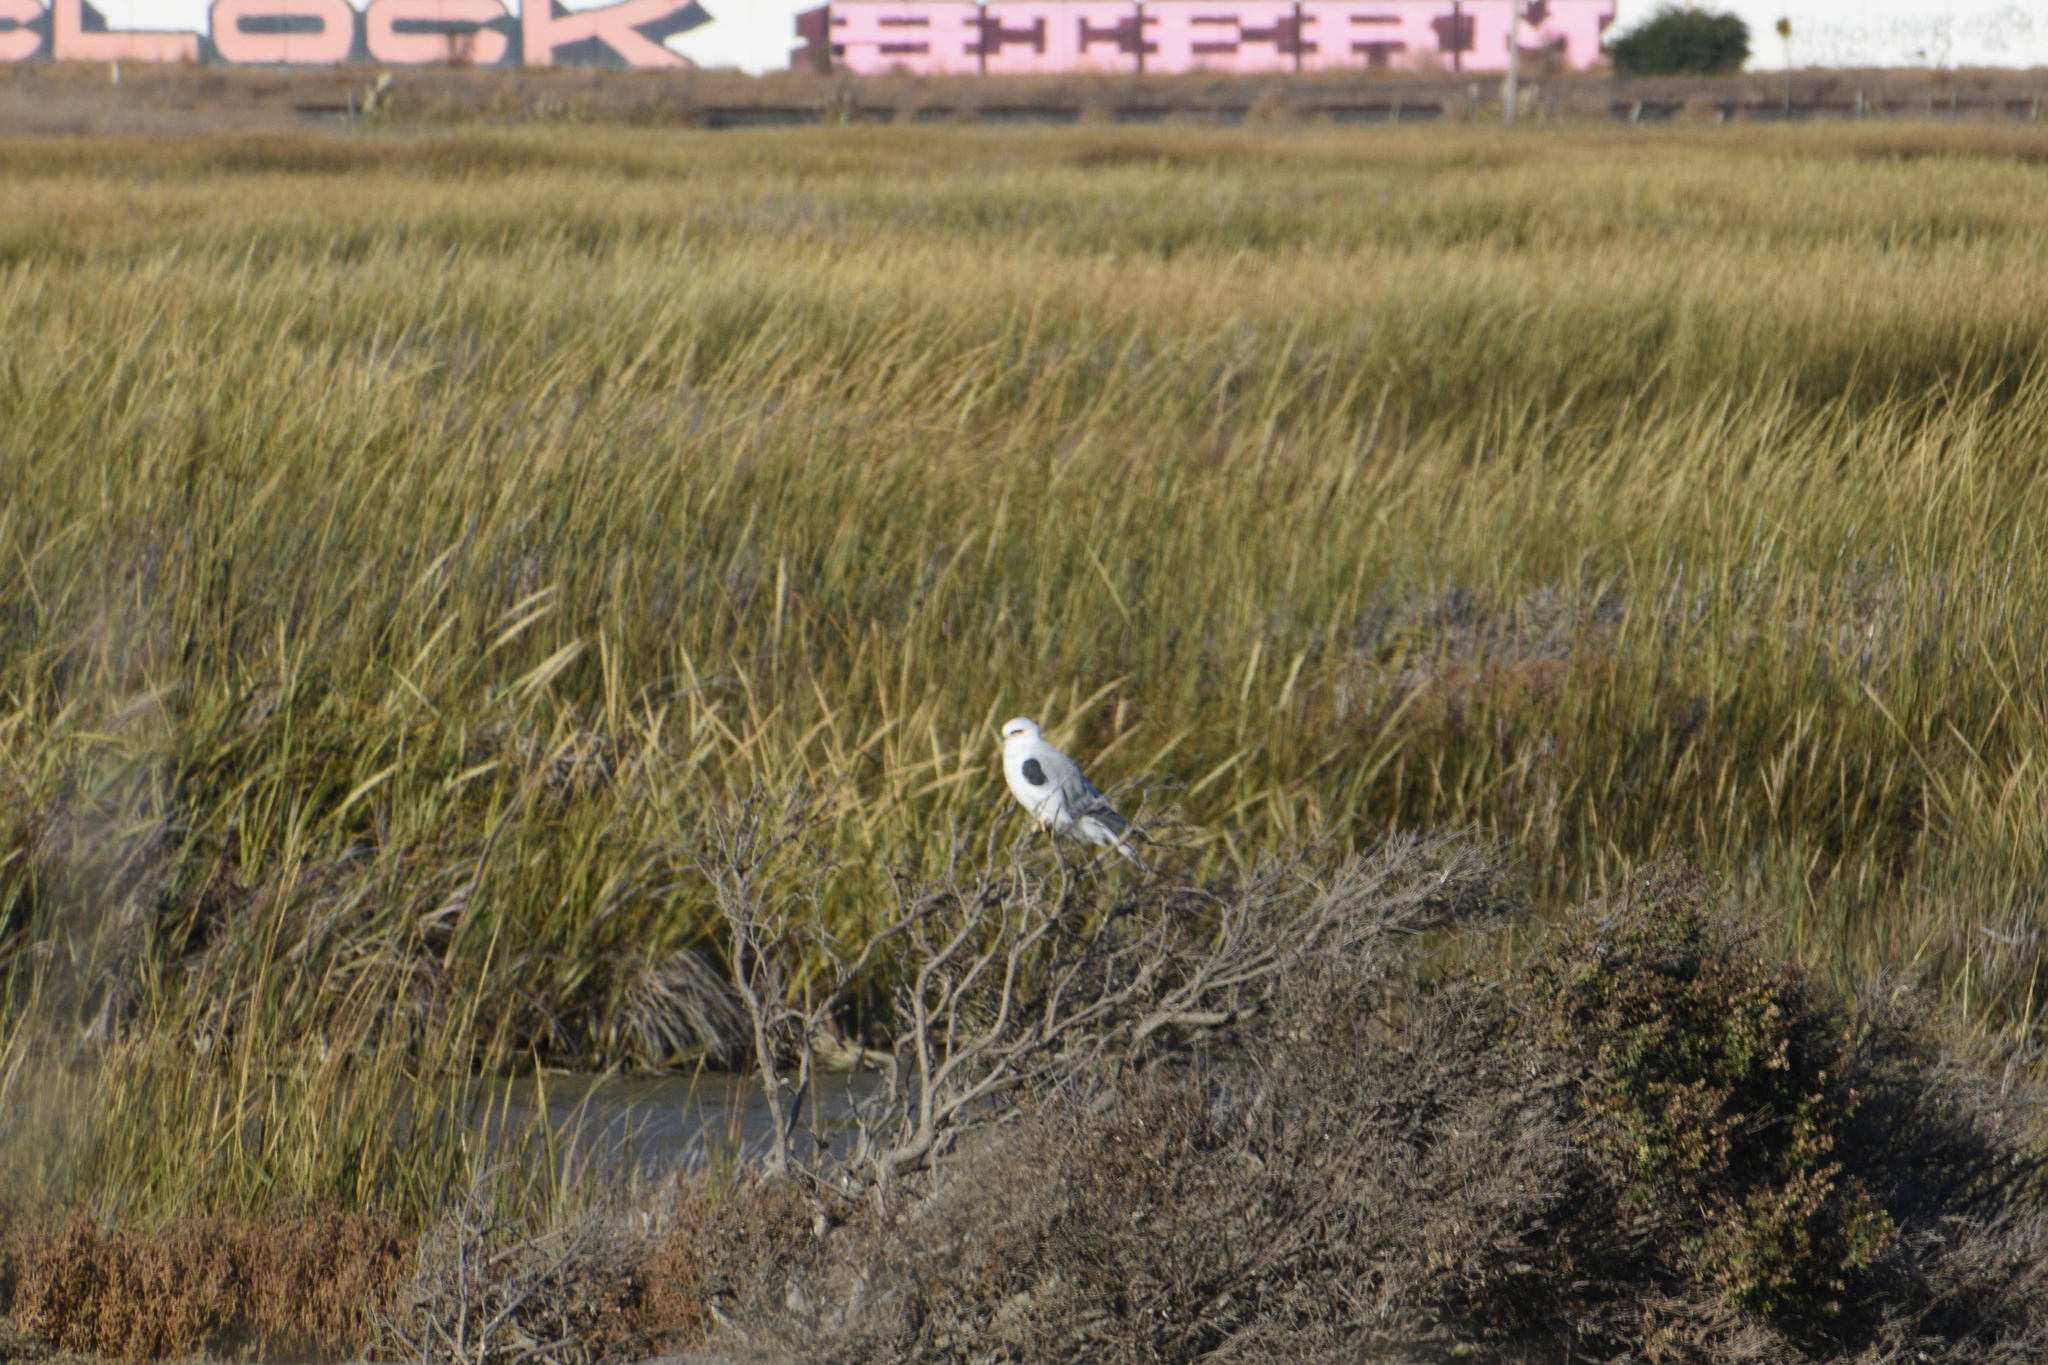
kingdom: Animalia
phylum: Chordata
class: Aves
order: Accipitriformes
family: Accipitridae
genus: Elanus
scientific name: Elanus leucurus
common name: White-tailed kite
